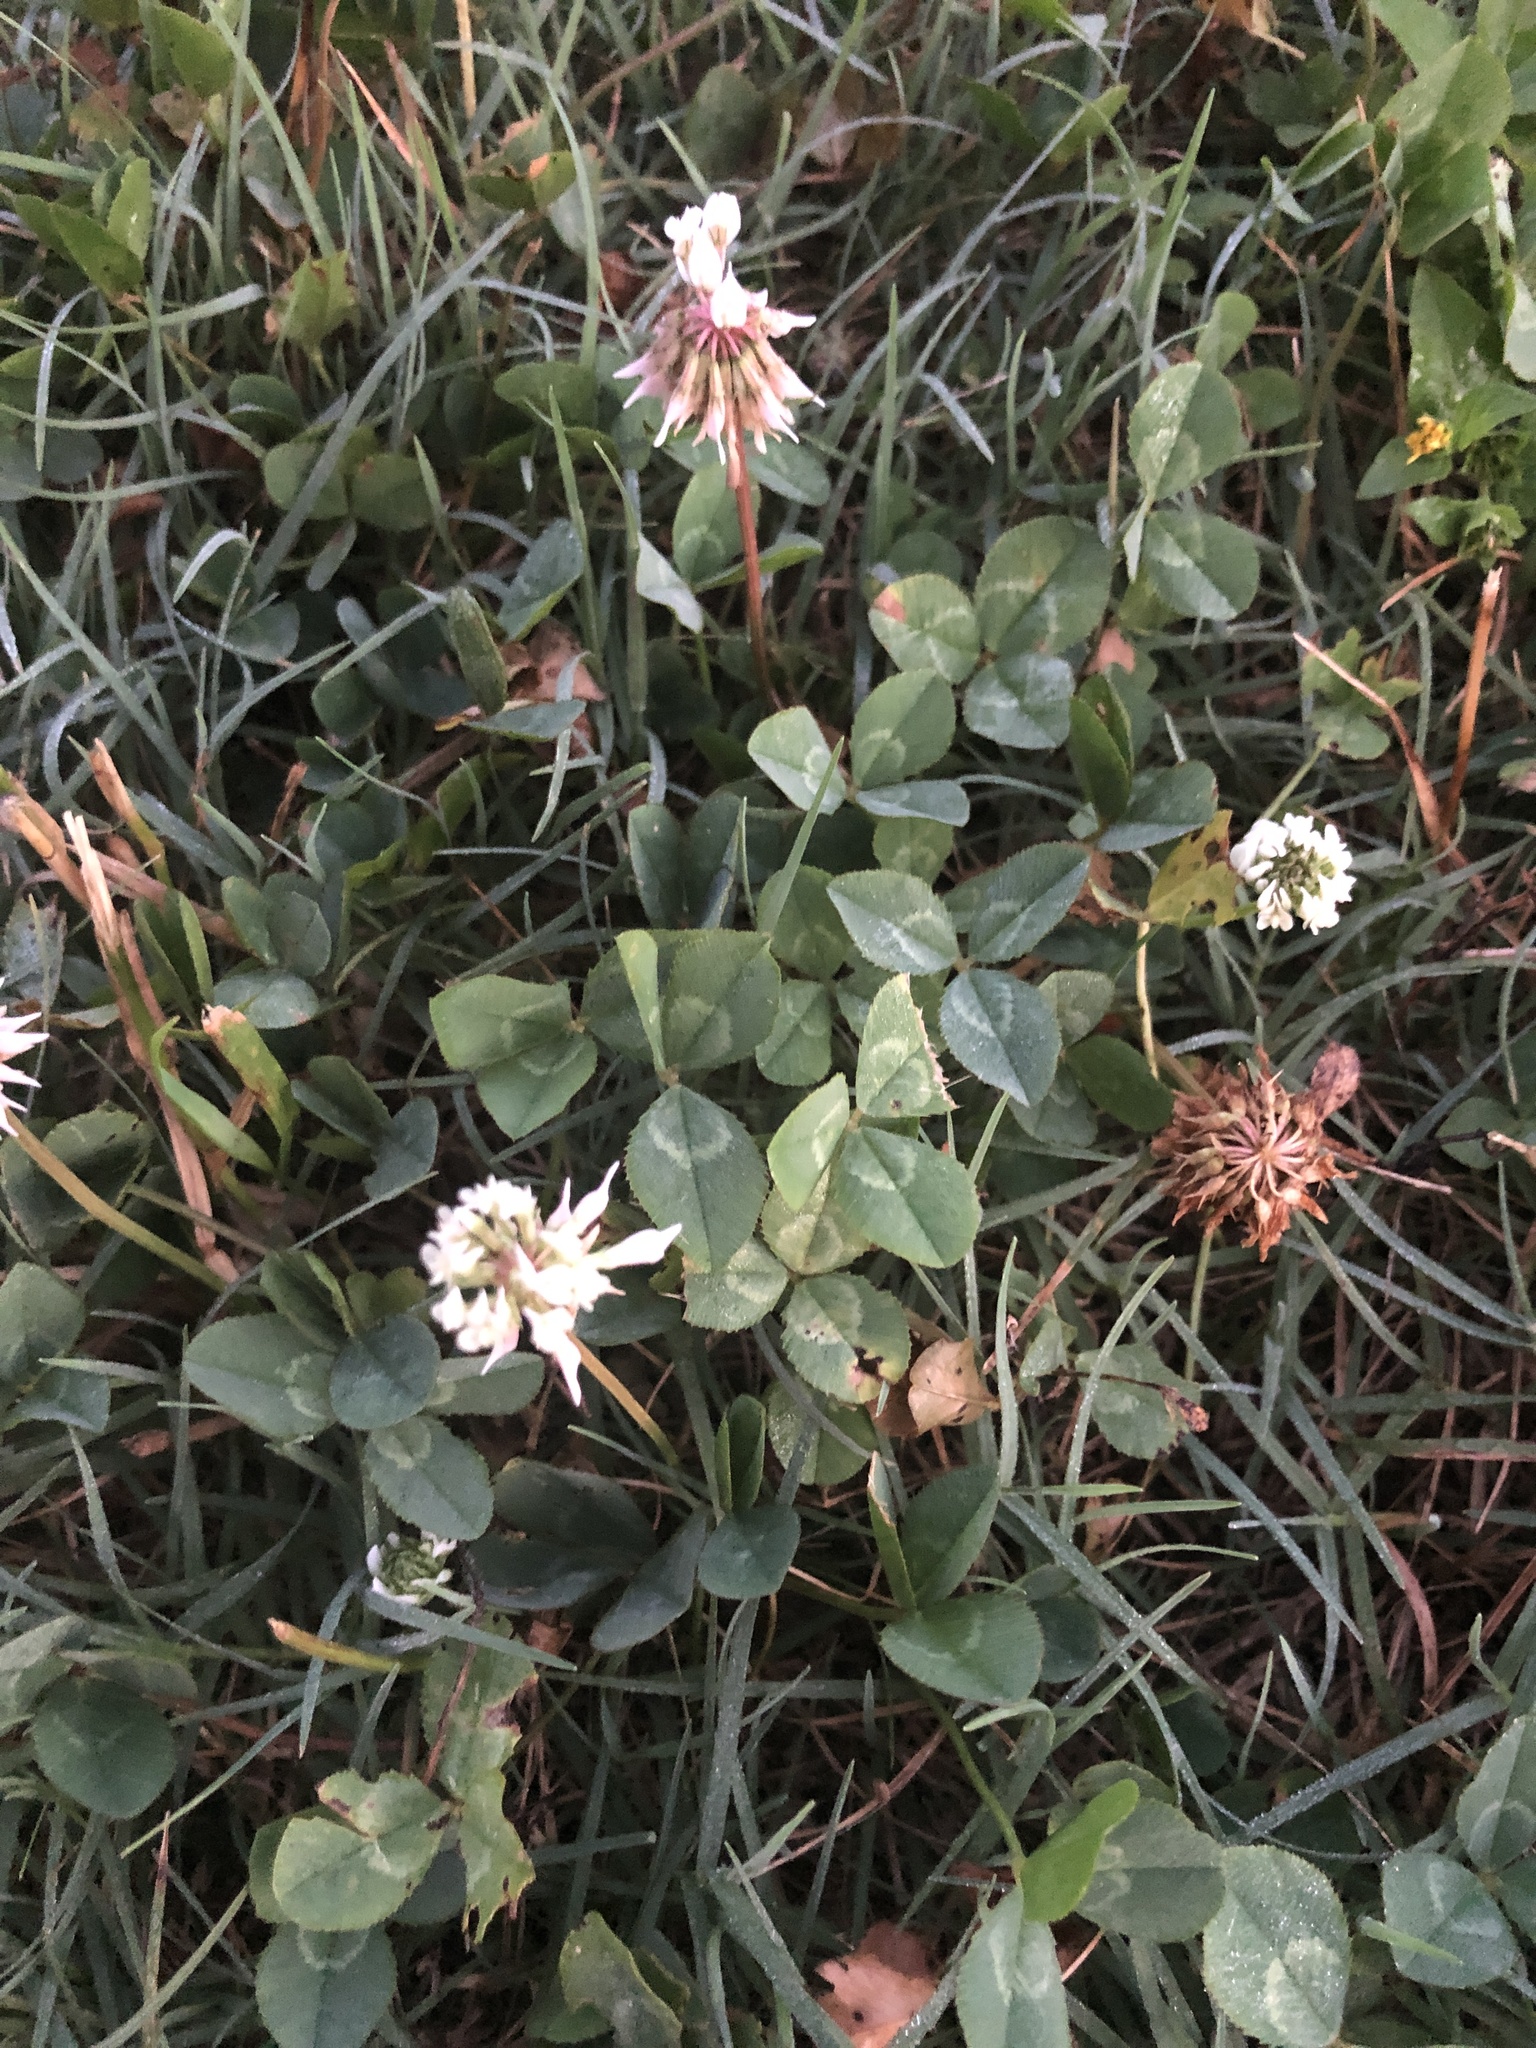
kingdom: Plantae
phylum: Tracheophyta
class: Magnoliopsida
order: Fabales
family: Fabaceae
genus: Trifolium
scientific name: Trifolium repens
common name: White clover
